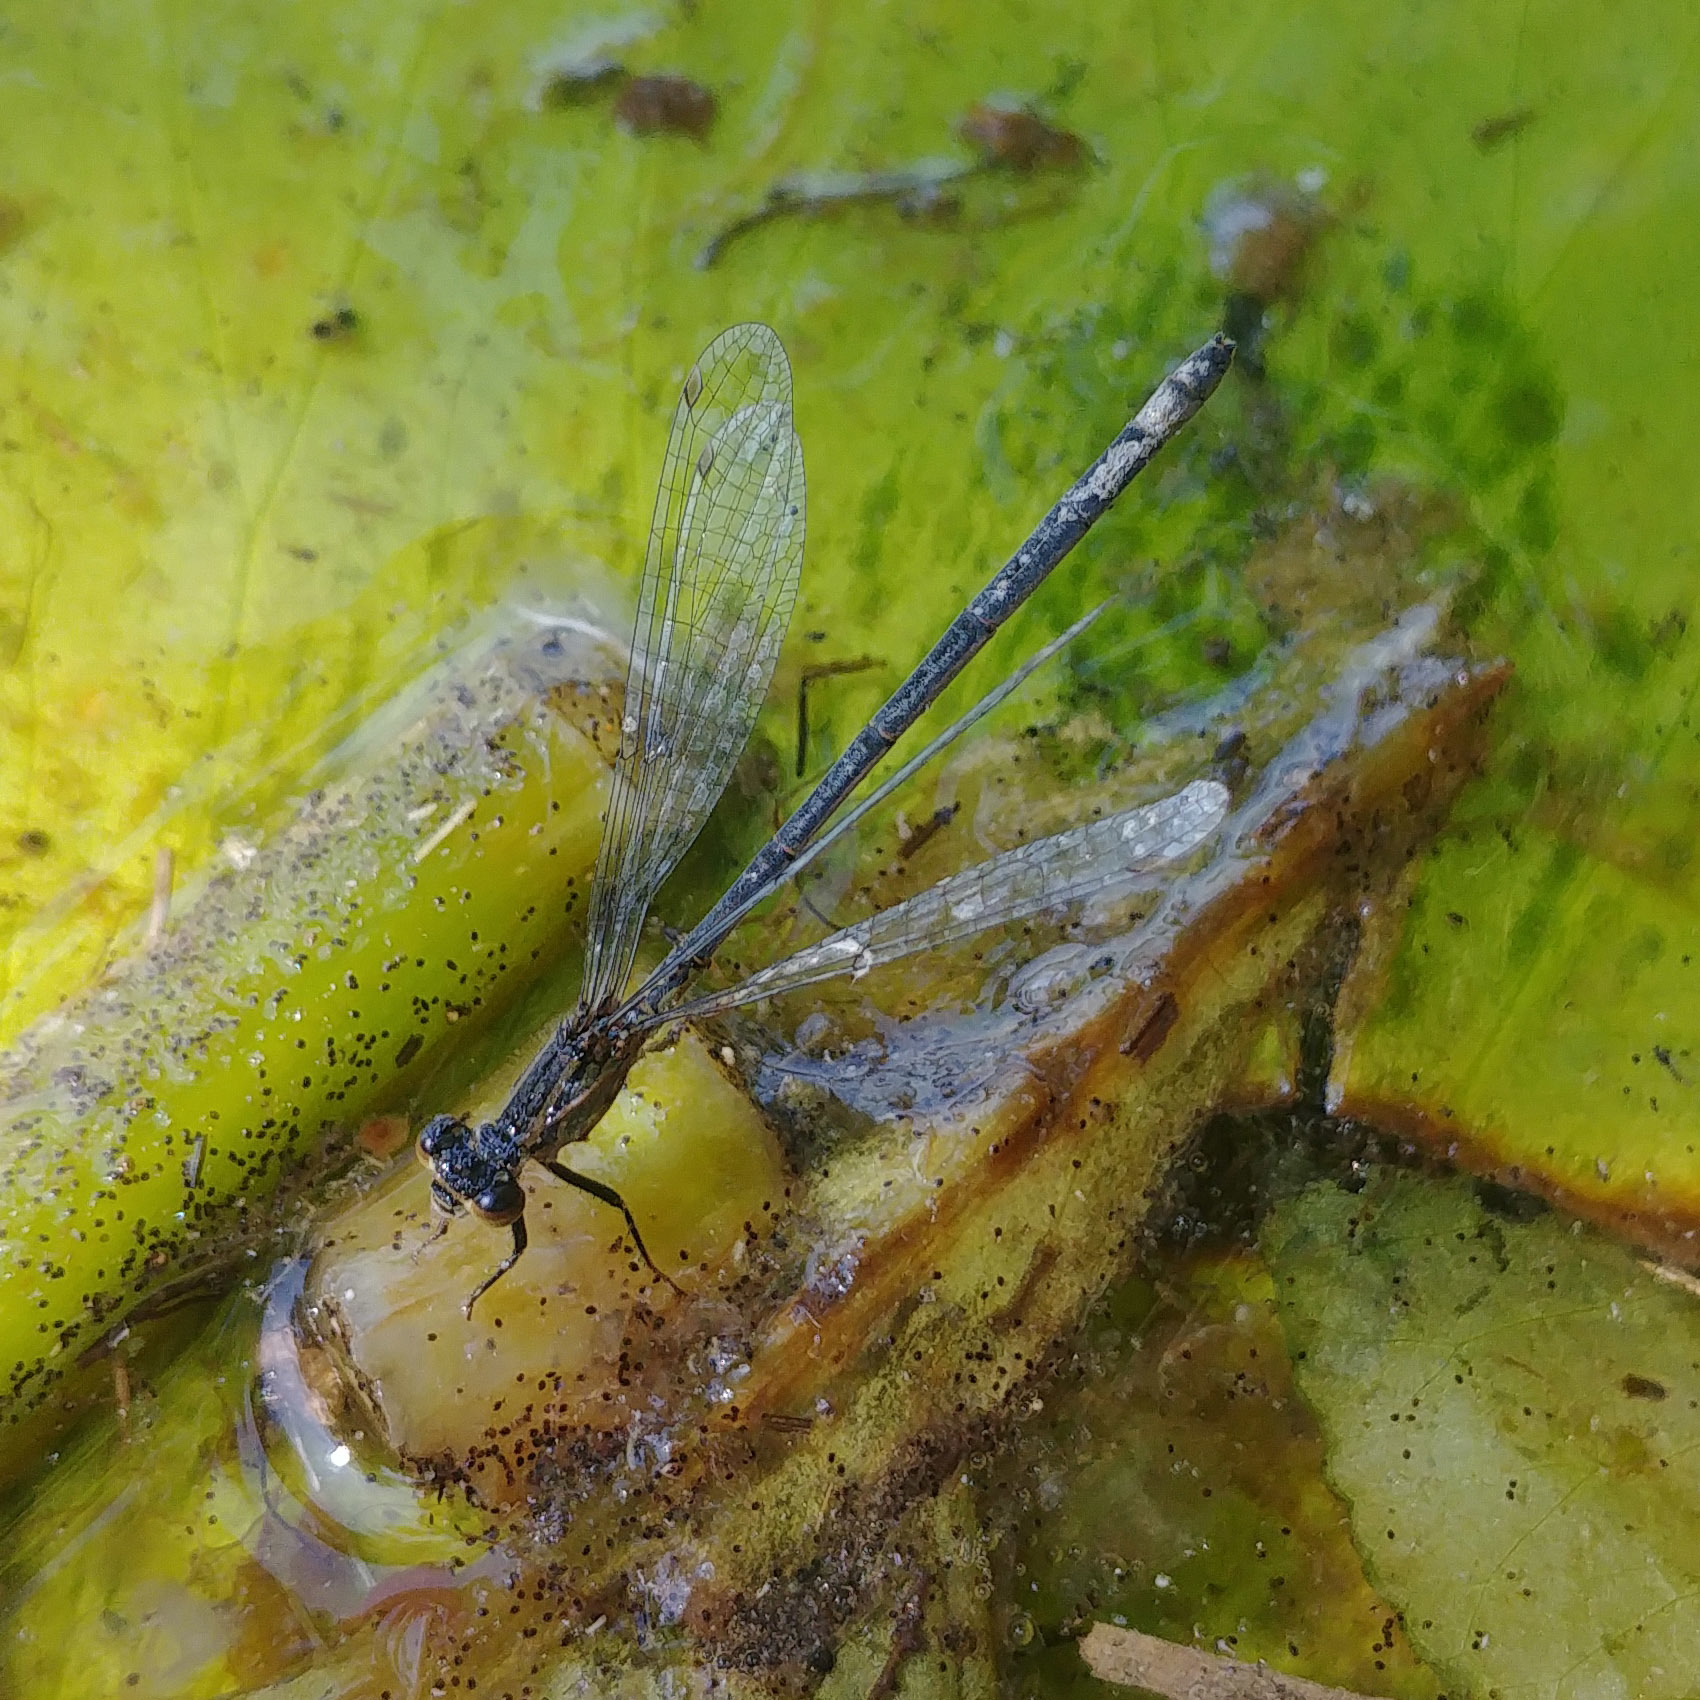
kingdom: Animalia
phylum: Arthropoda
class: Insecta
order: Odonata
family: Coenagrionidae
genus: Ischnura
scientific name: Ischnura elegans
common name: Blue-tailed damselfly
